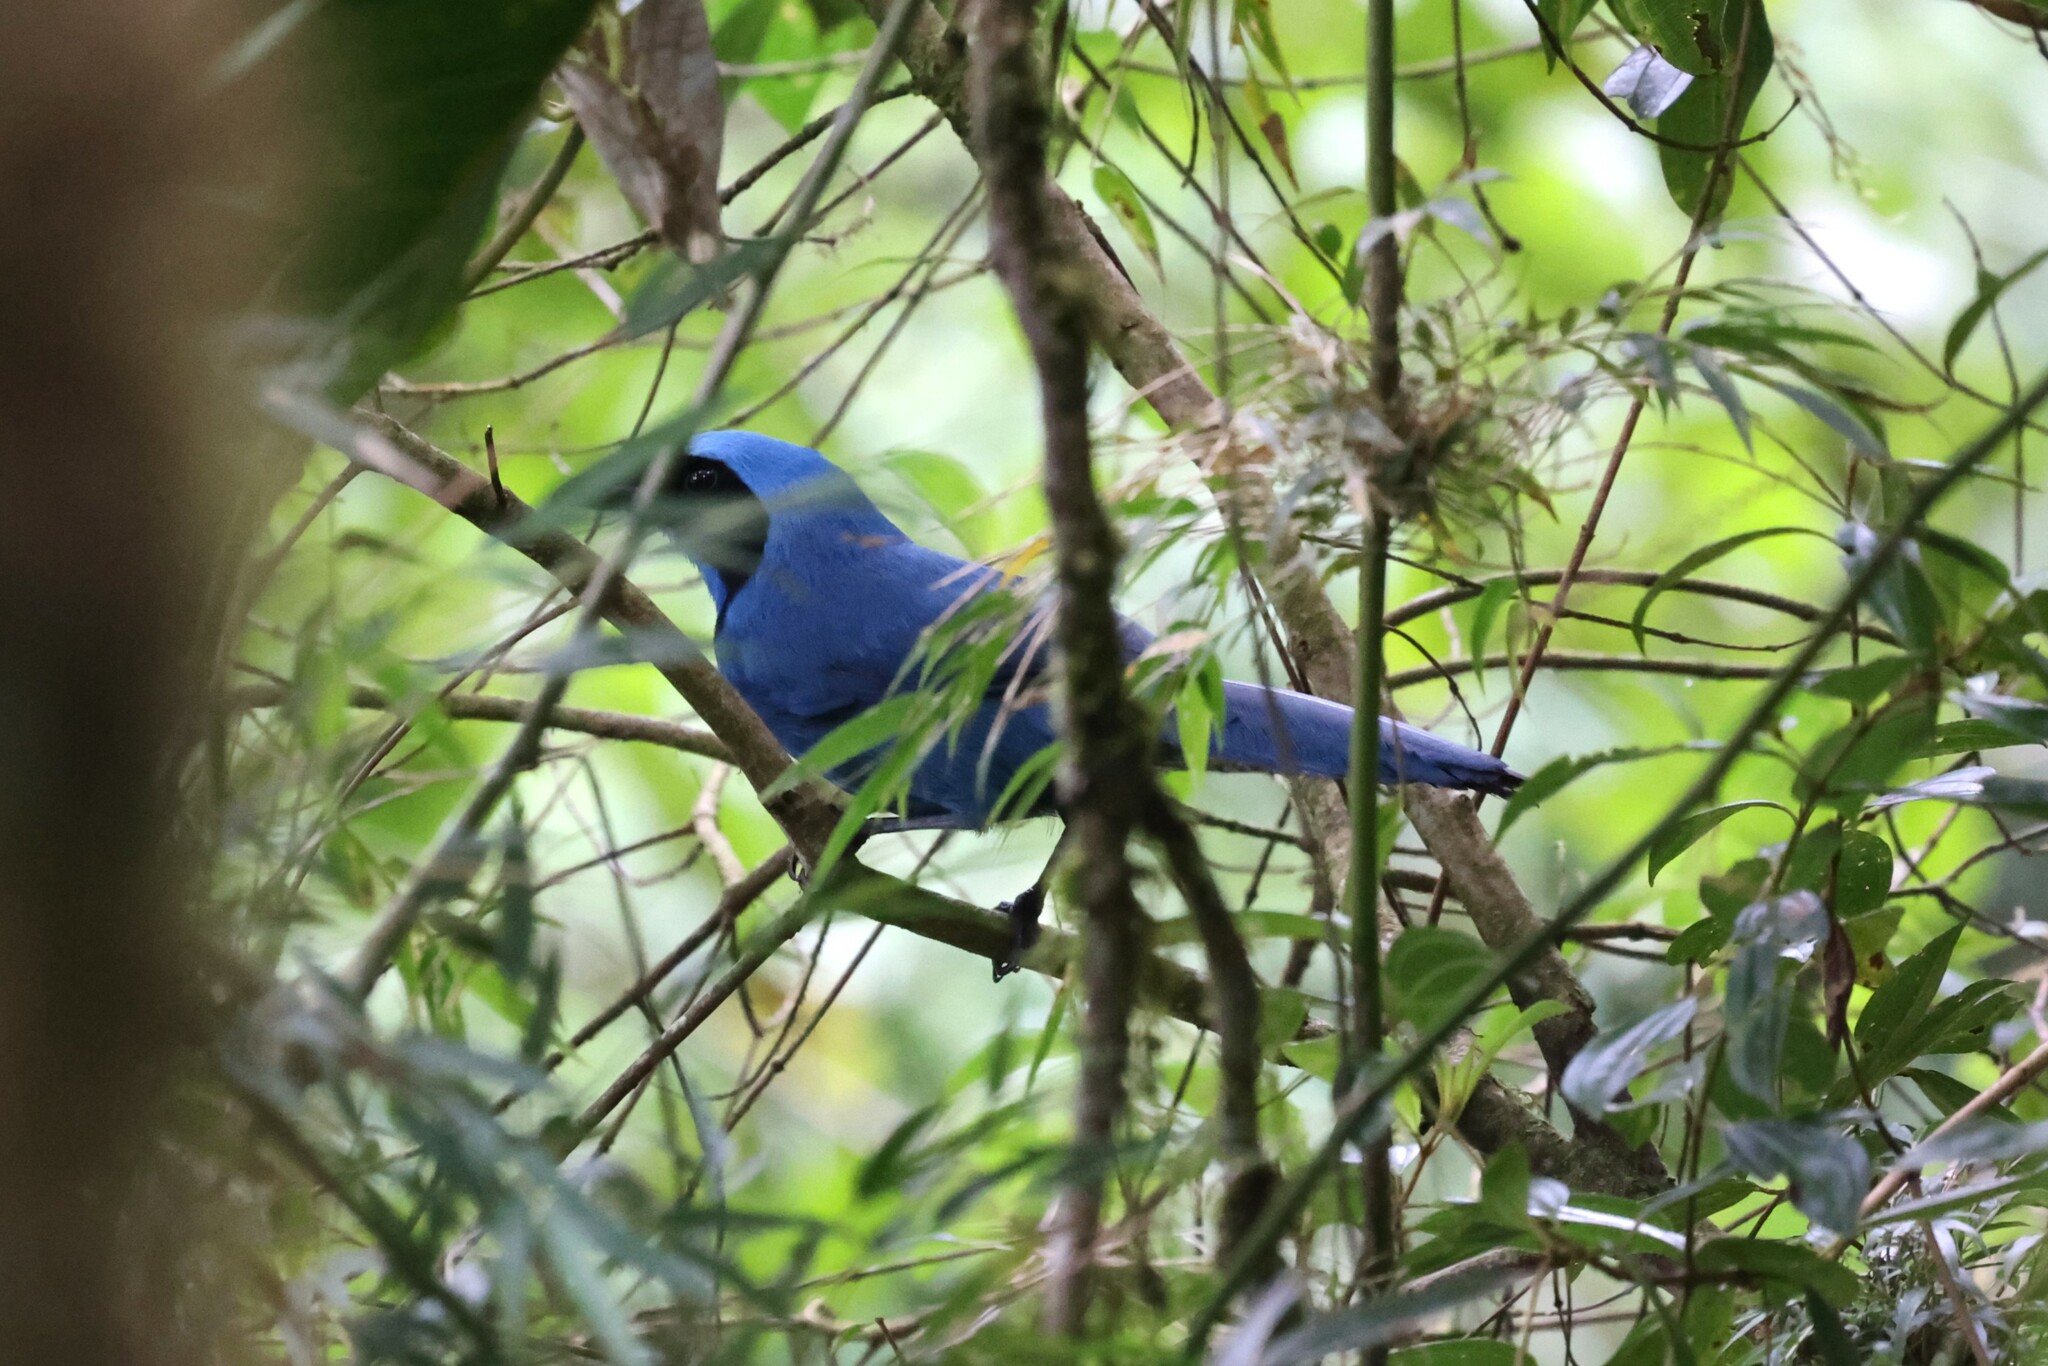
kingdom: Animalia
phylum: Chordata
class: Aves
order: Passeriformes
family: Corvidae
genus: Cyanolyca
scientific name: Cyanolyca turcosa
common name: Turquoise jay
